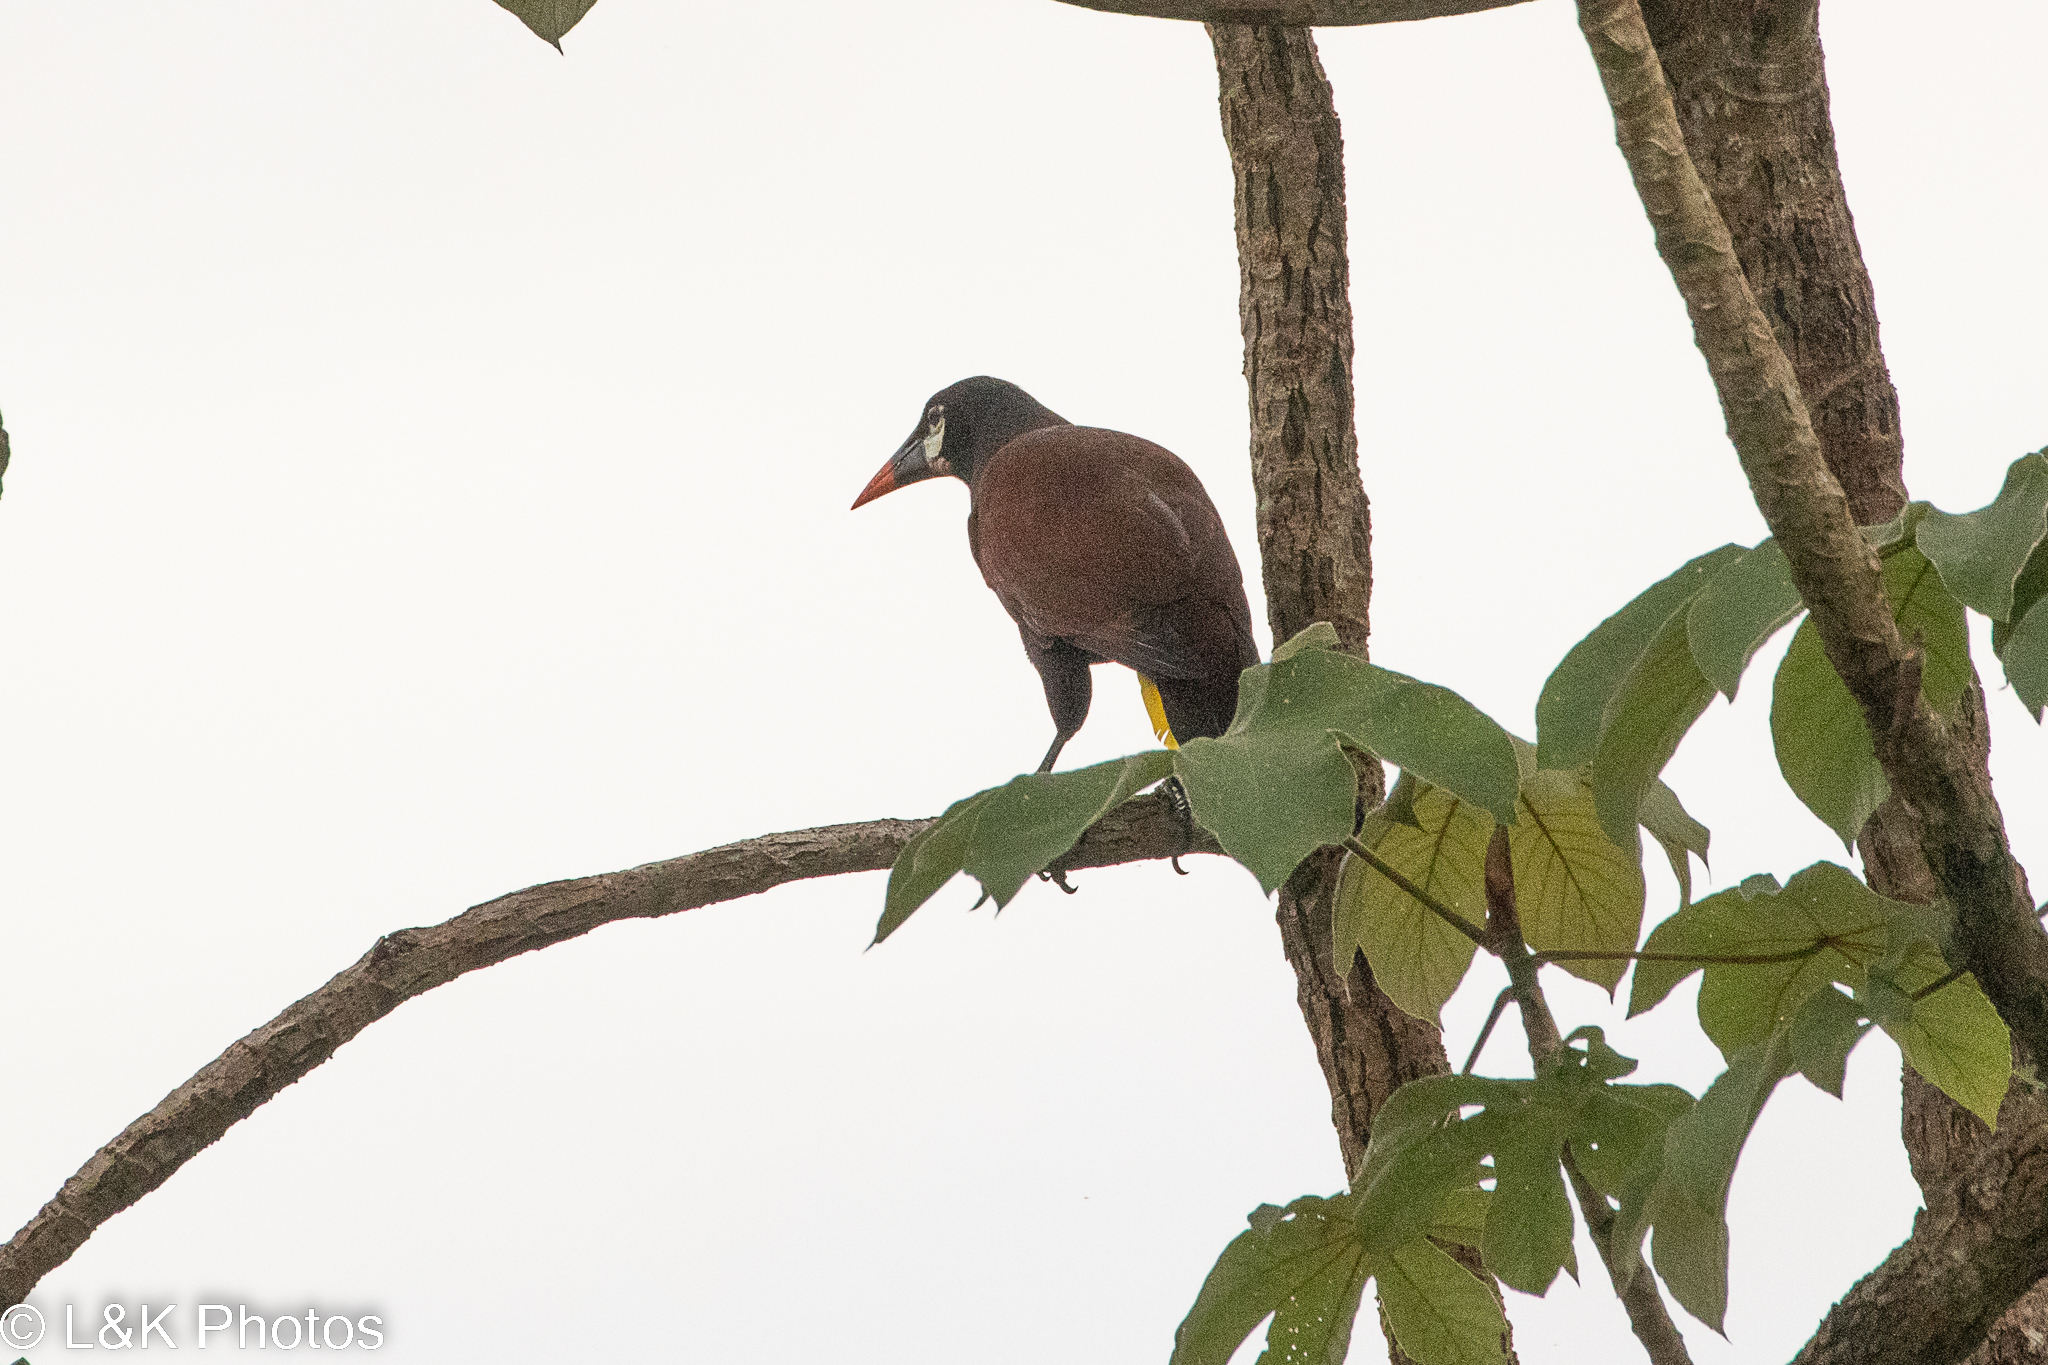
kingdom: Animalia
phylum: Chordata
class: Aves
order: Passeriformes
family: Icteridae
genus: Psarocolius
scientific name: Psarocolius montezuma
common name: Montezuma oropendola
